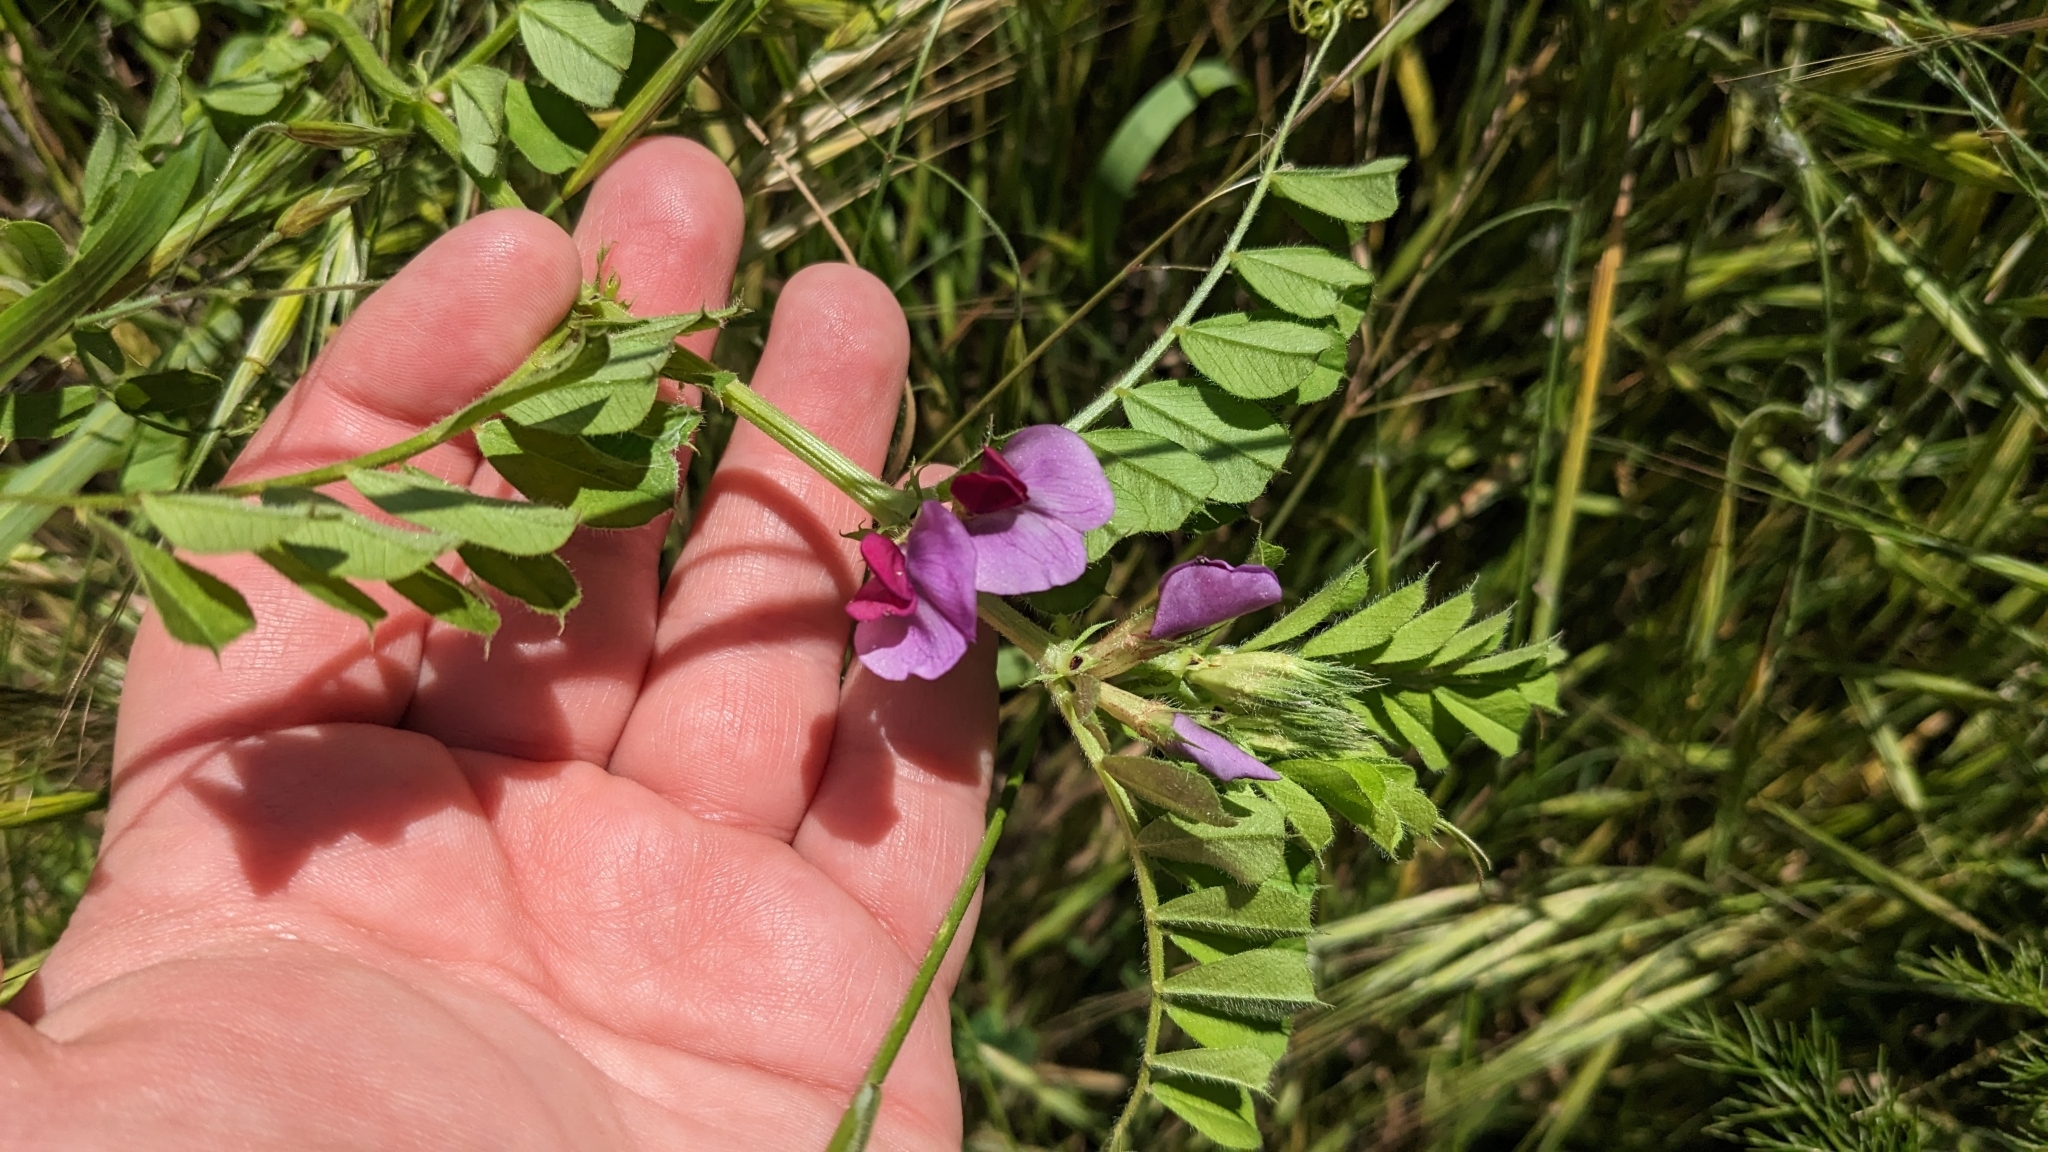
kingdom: Plantae
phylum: Tracheophyta
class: Magnoliopsida
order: Fabales
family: Fabaceae
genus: Vicia
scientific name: Vicia sativa
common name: Garden vetch
